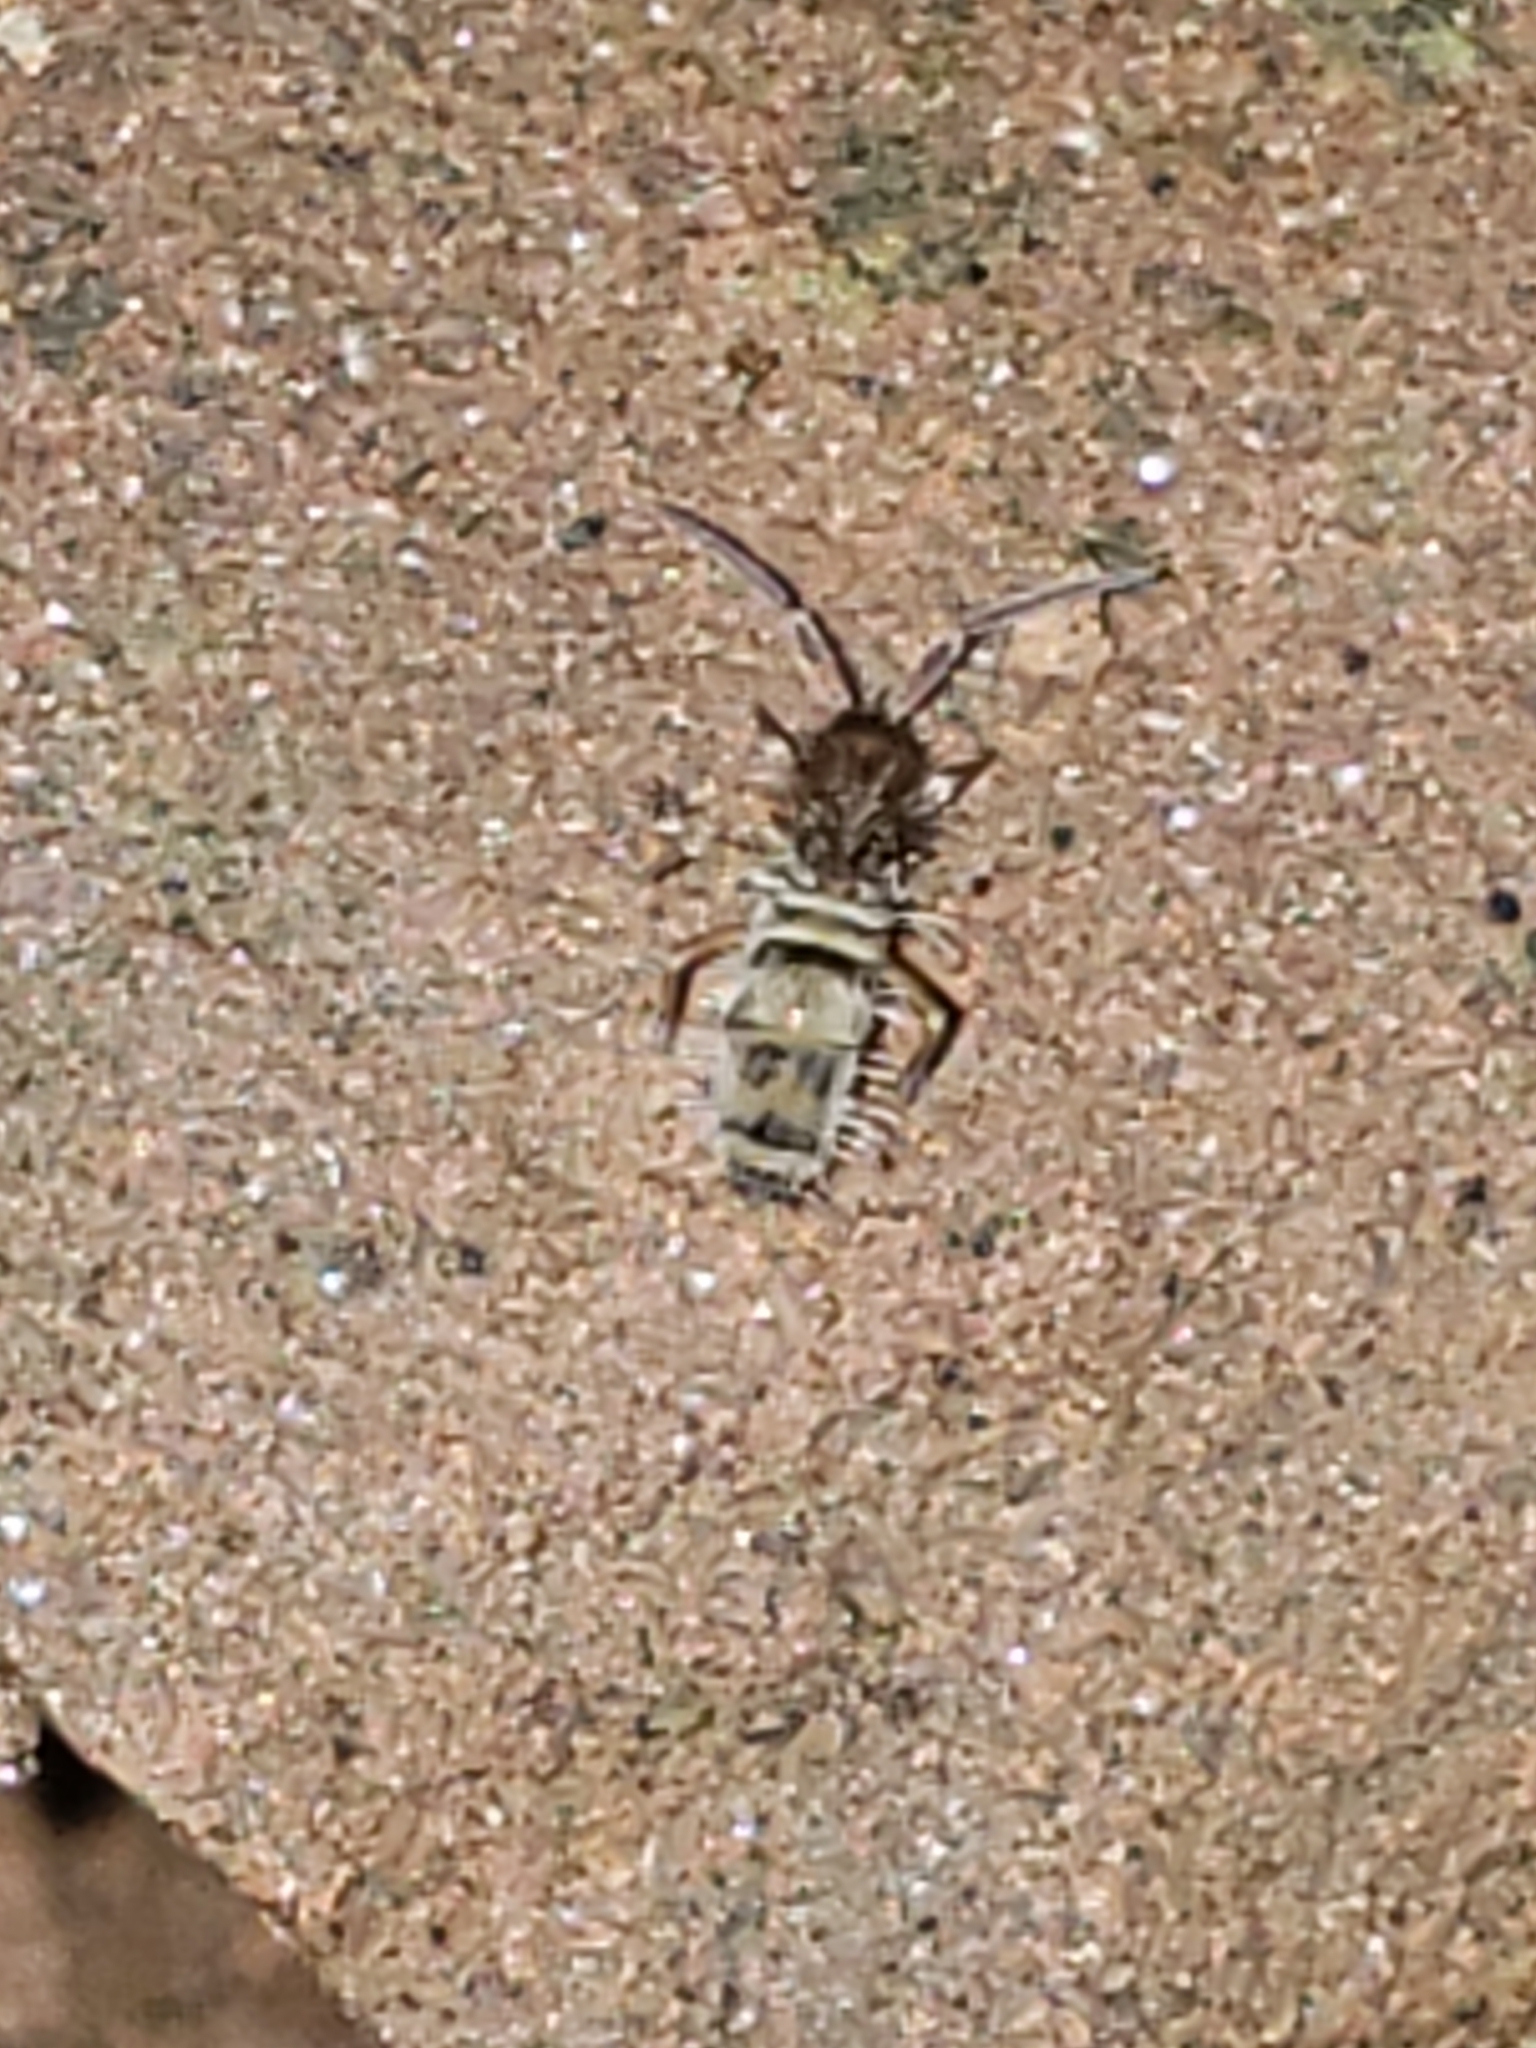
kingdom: Animalia
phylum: Arthropoda
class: Collembola
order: Entomobryomorpha
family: Entomobryidae
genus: Homidia
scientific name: Homidia sauteri
